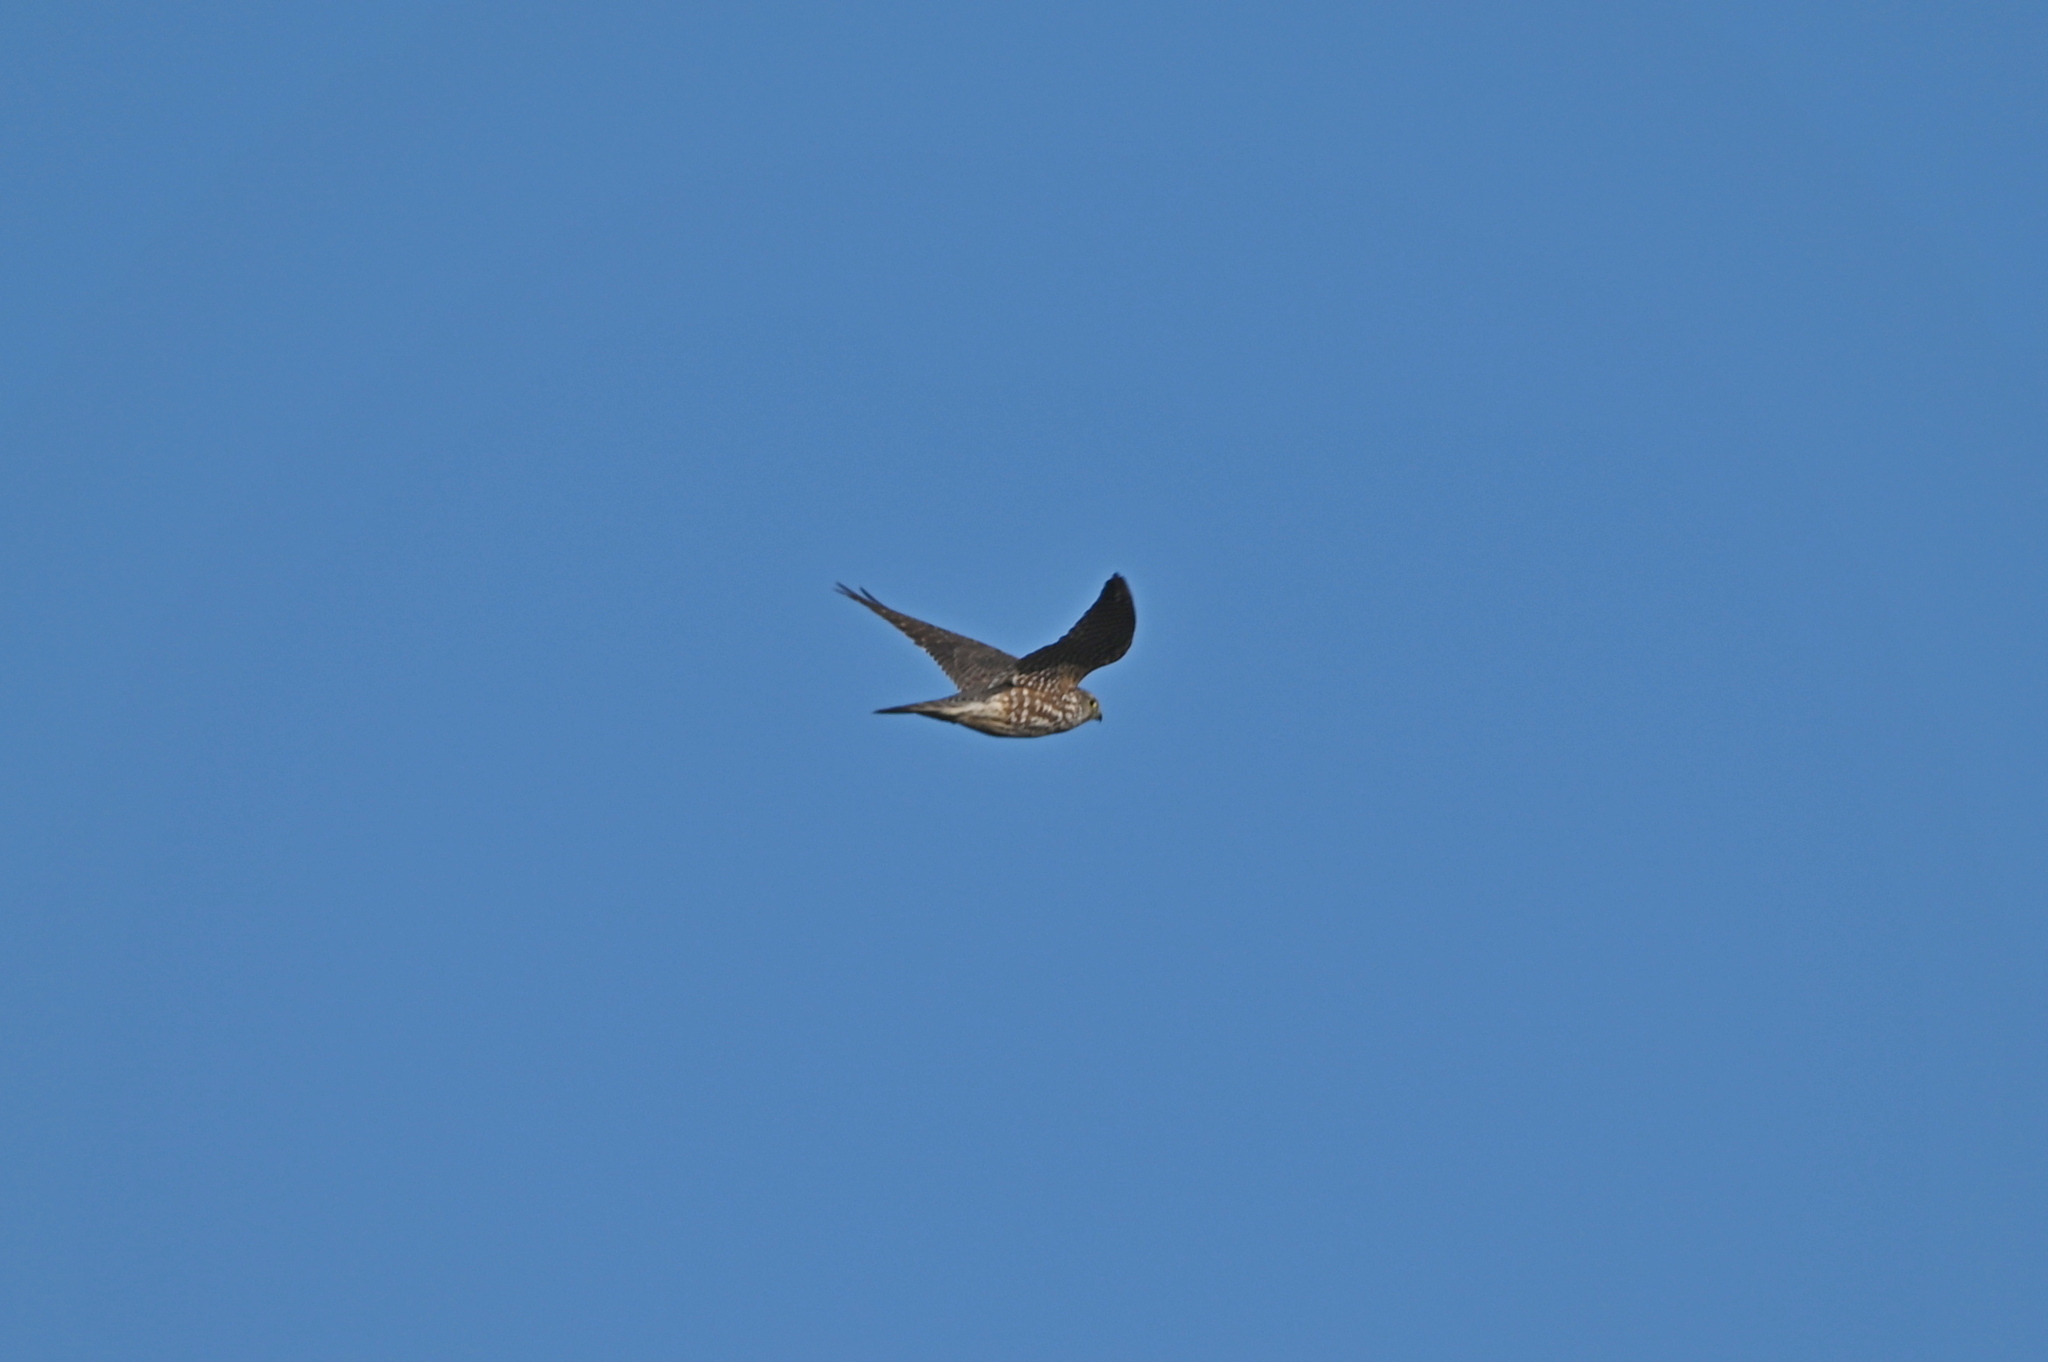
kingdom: Animalia
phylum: Chordata
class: Aves
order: Falconiformes
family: Falconidae
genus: Falco
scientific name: Falco columbarius
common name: Merlin
